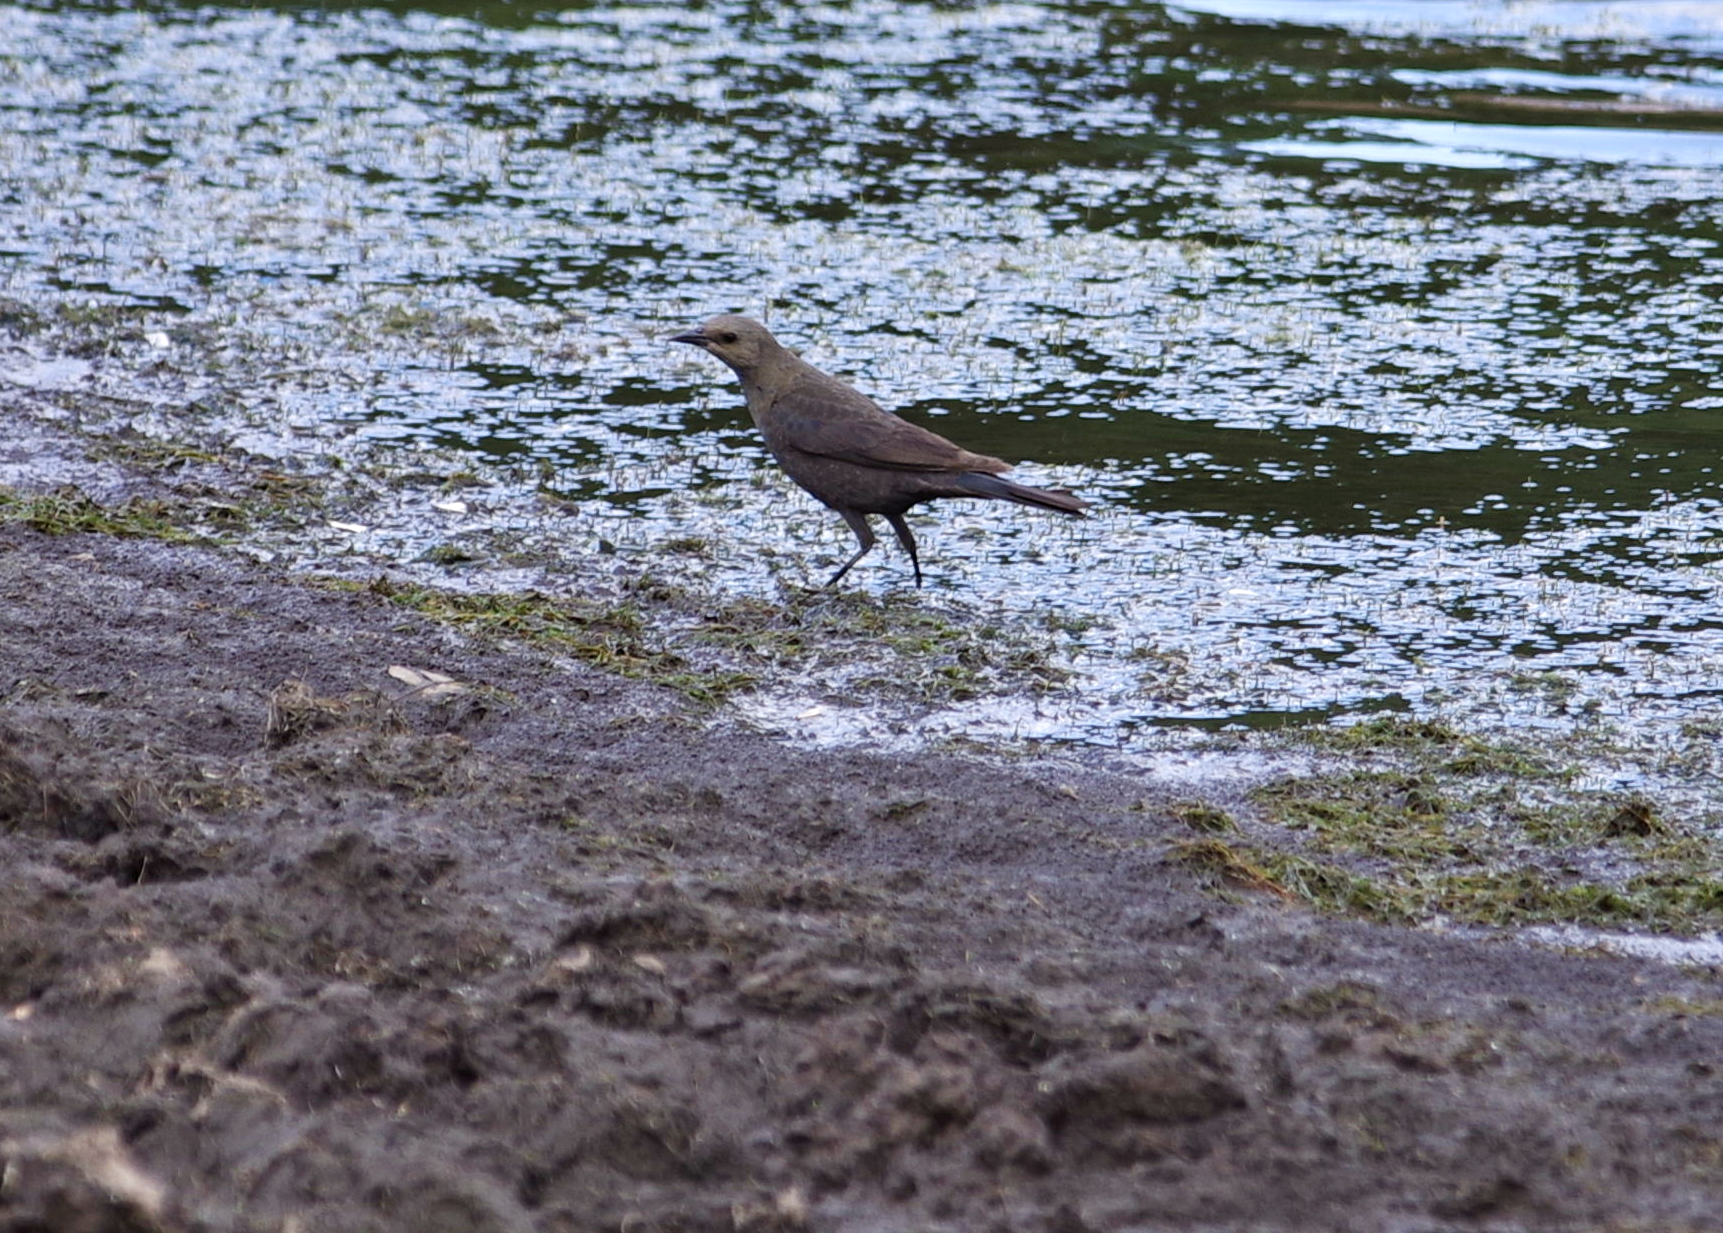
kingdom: Animalia
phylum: Chordata
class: Aves
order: Passeriformes
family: Icteridae
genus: Euphagus
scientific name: Euphagus cyanocephalus
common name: Brewer's blackbird
